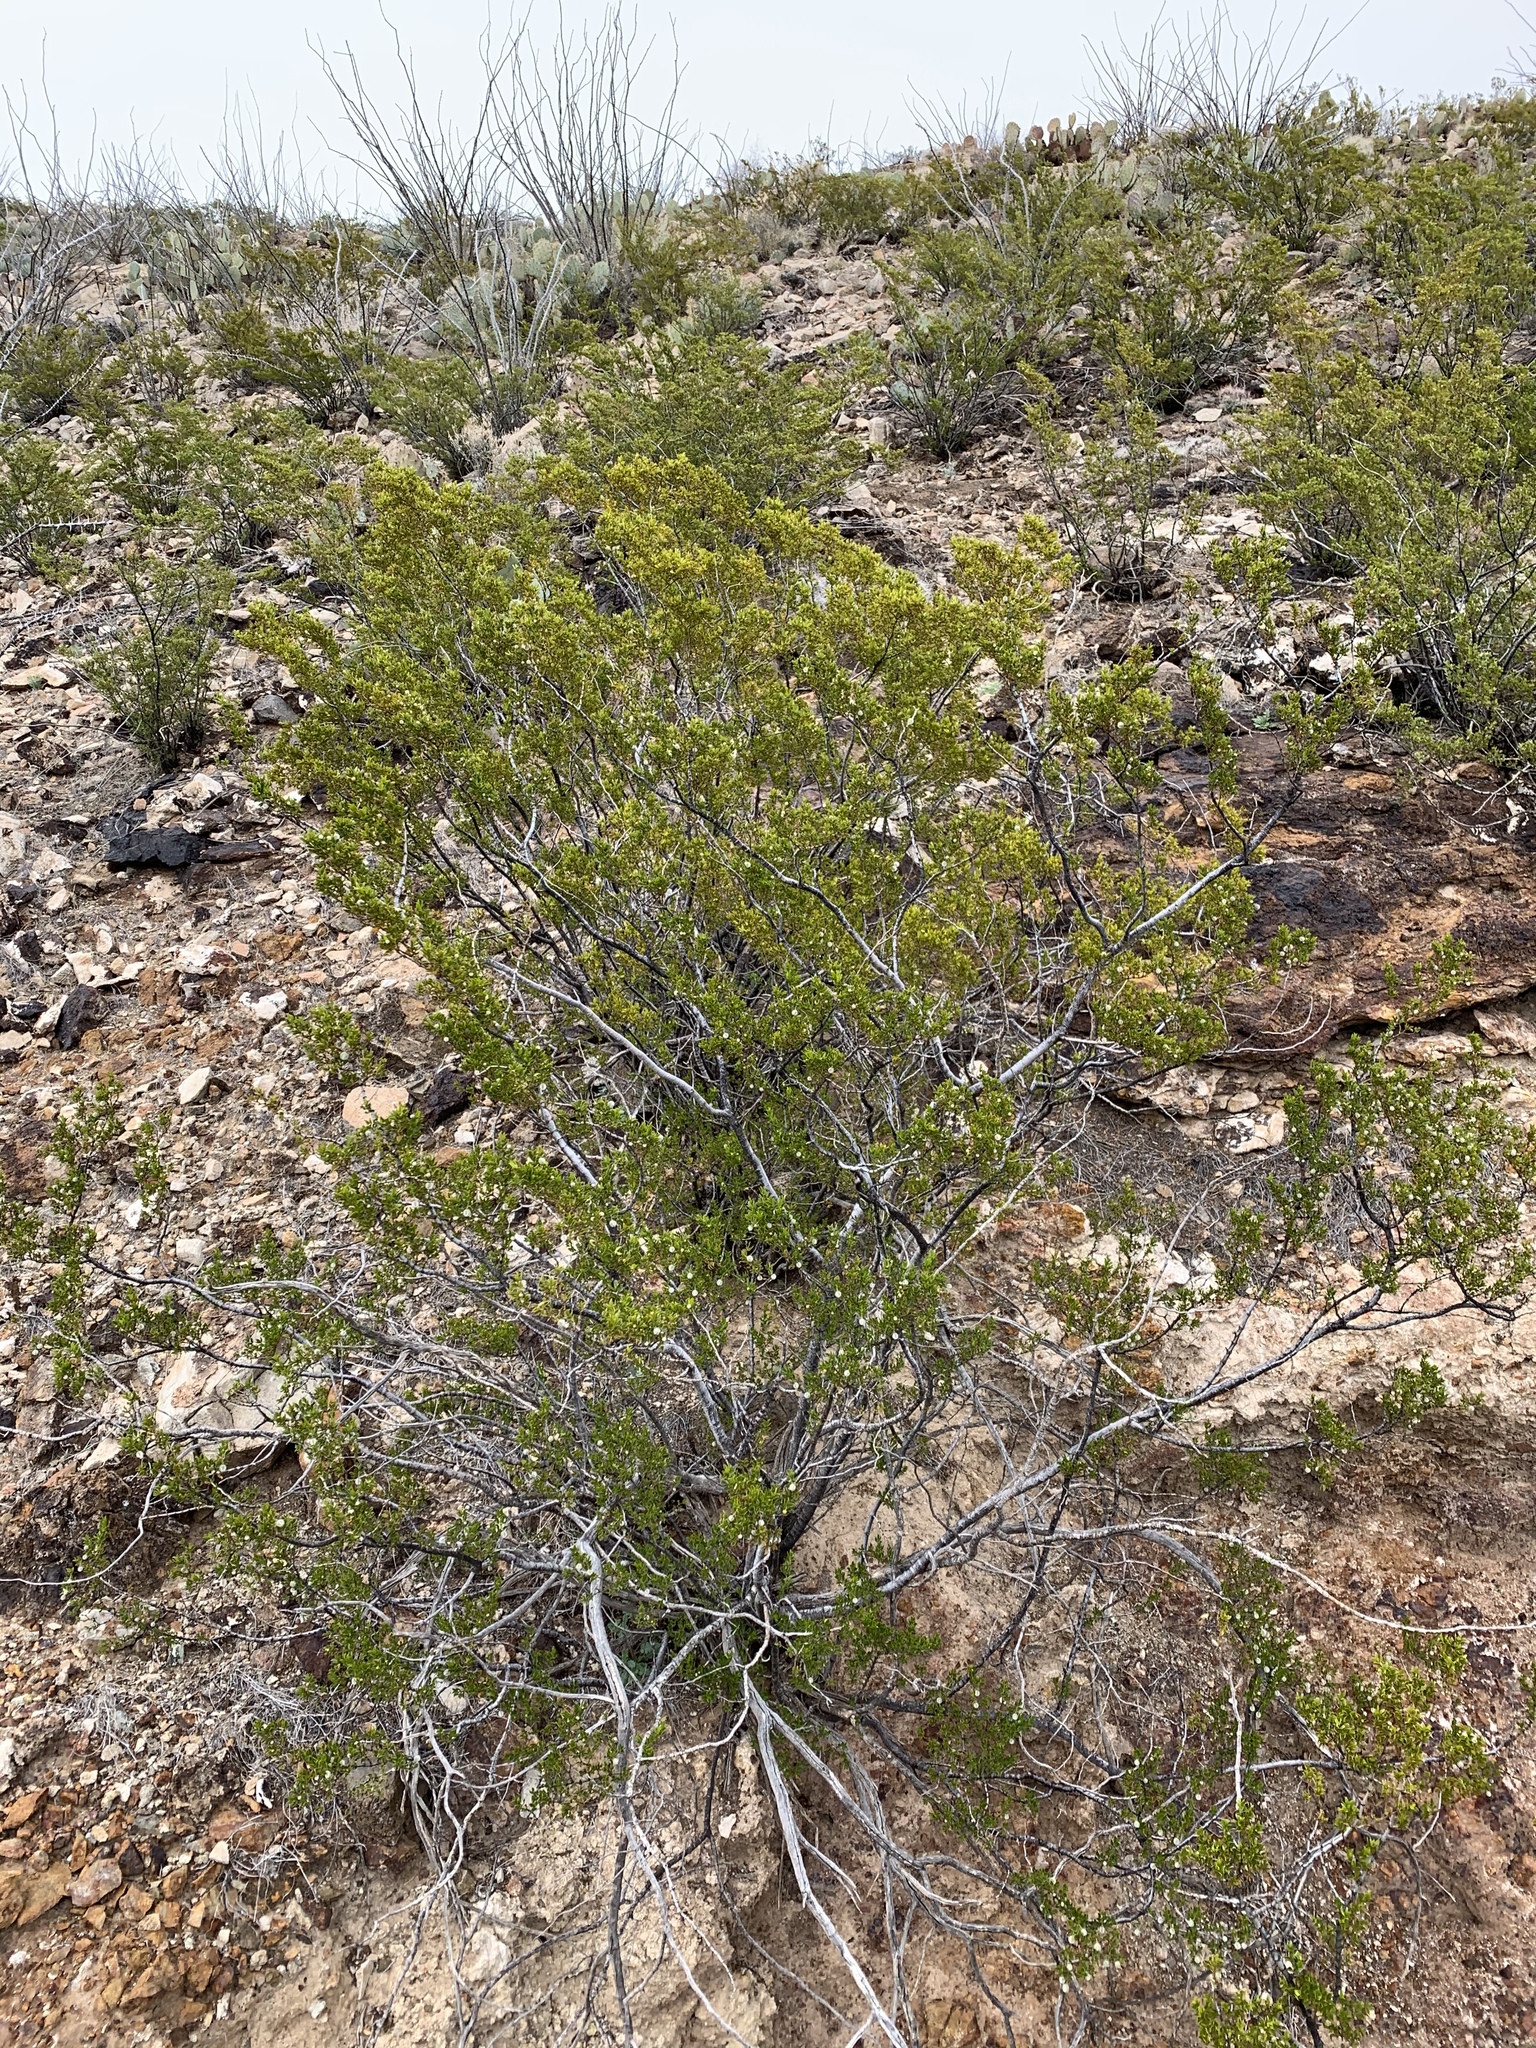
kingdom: Plantae
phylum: Tracheophyta
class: Magnoliopsida
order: Zygophyllales
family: Zygophyllaceae
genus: Larrea
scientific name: Larrea tridentata
